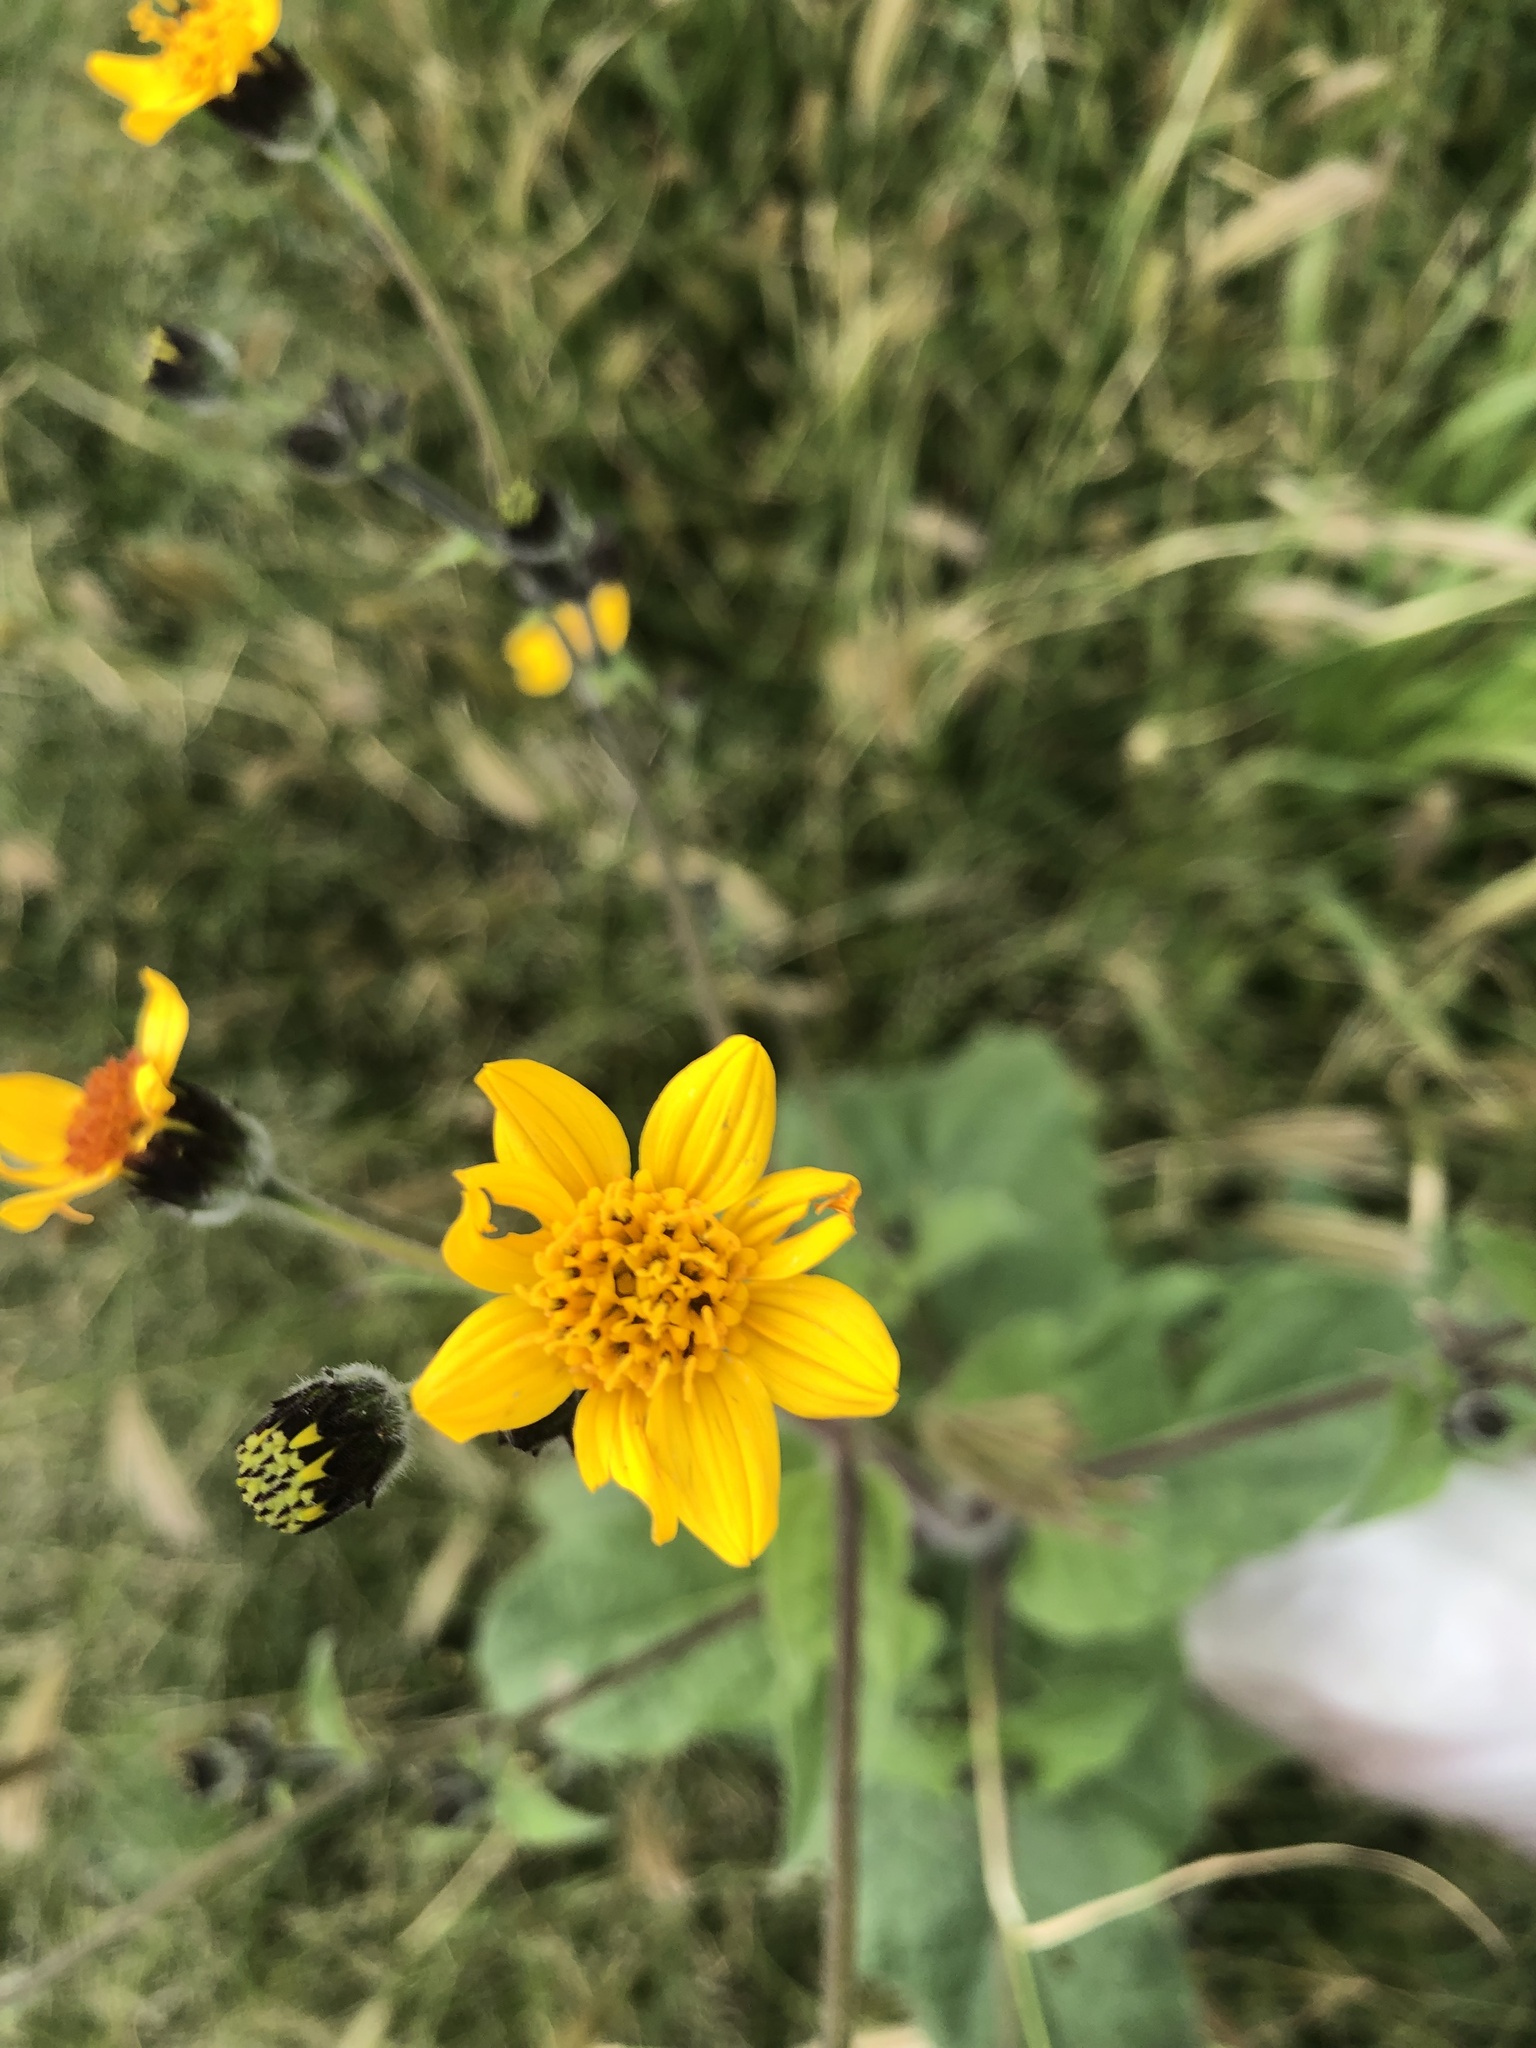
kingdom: Plantae
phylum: Tracheophyta
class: Magnoliopsida
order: Asterales
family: Asteraceae
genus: Simsia
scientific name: Simsia lagasceiformis
